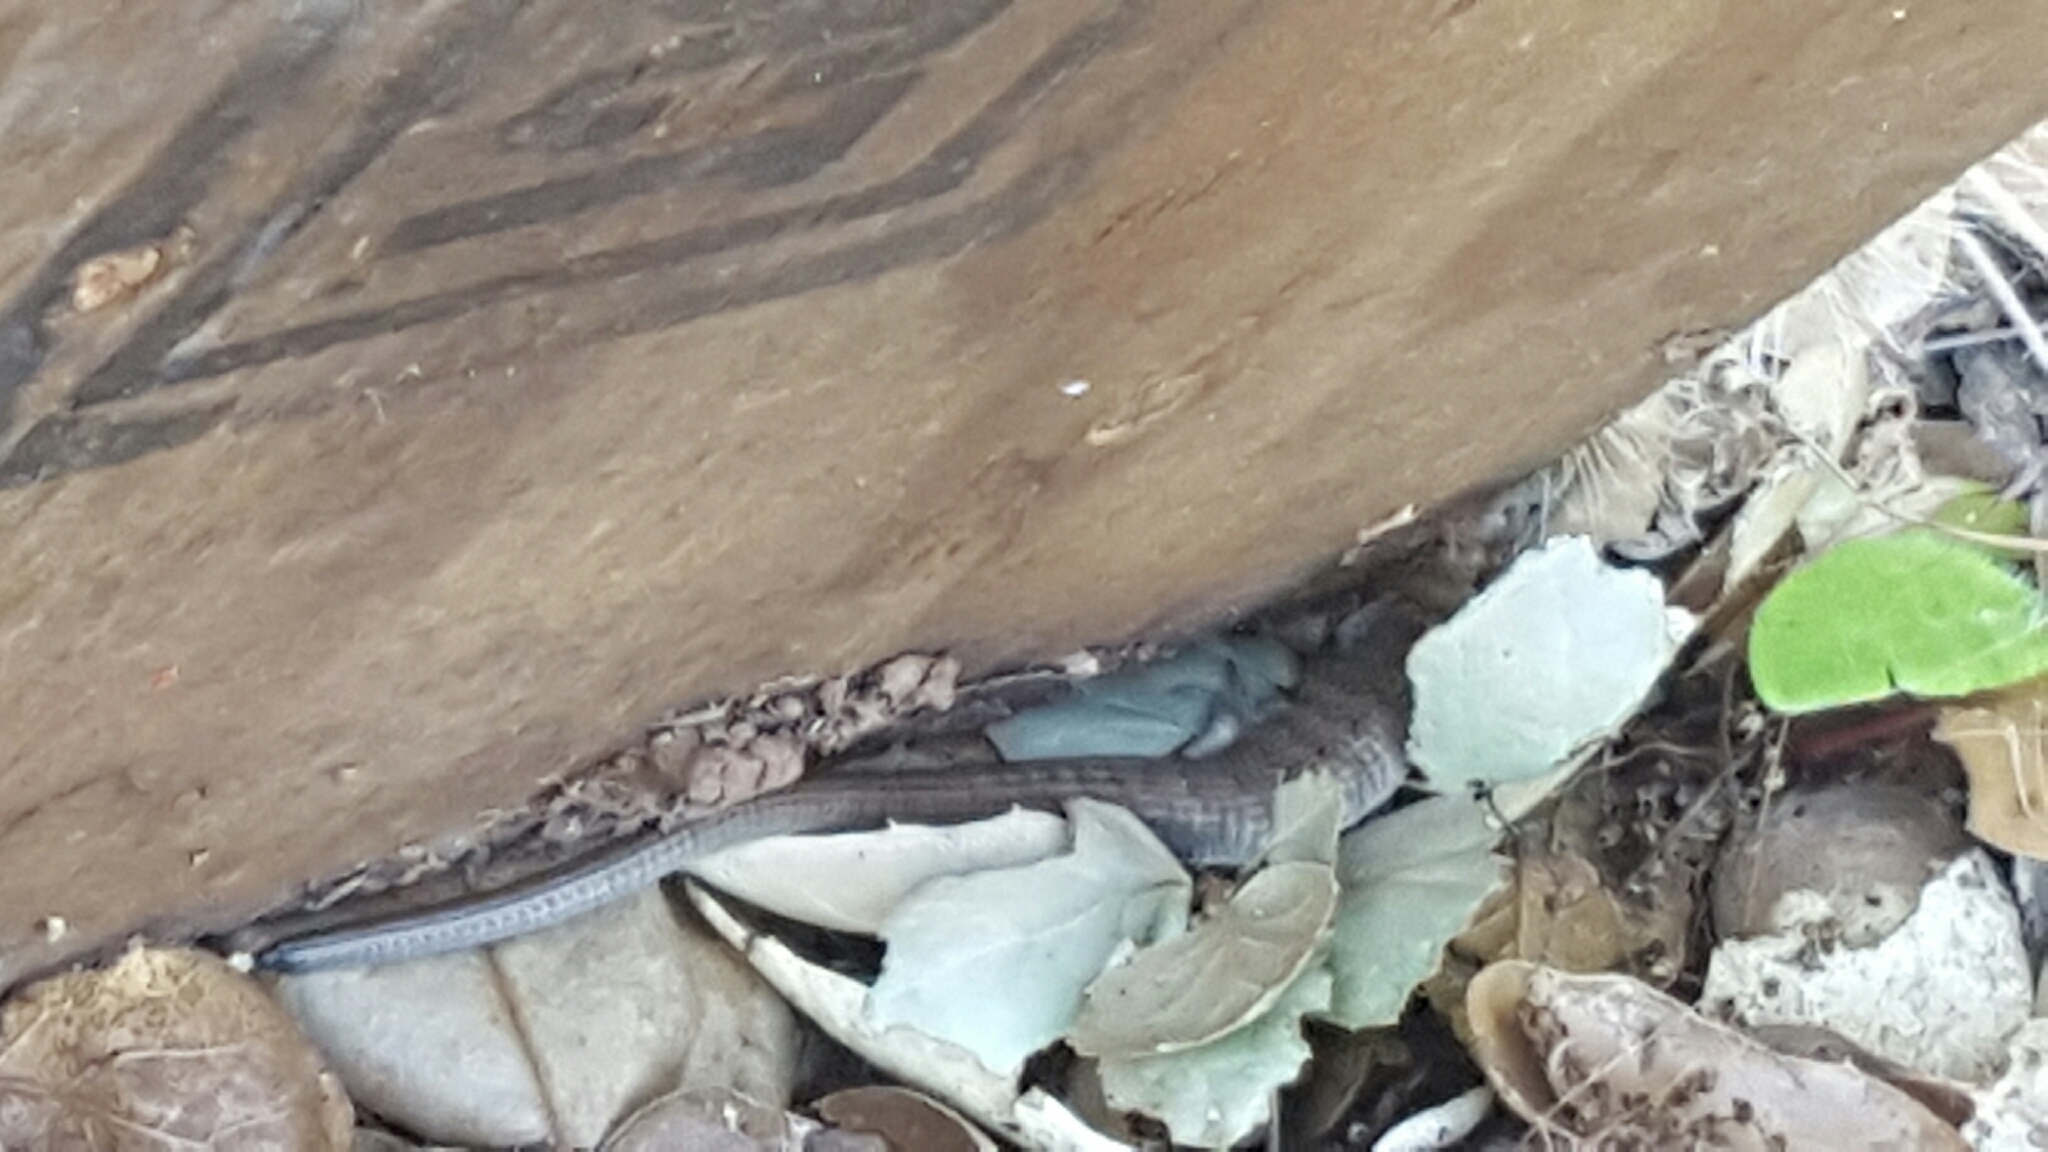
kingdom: Animalia
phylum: Chordata
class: Squamata
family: Anguidae
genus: Elgaria
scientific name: Elgaria multicarinata
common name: Southern alligator lizard
